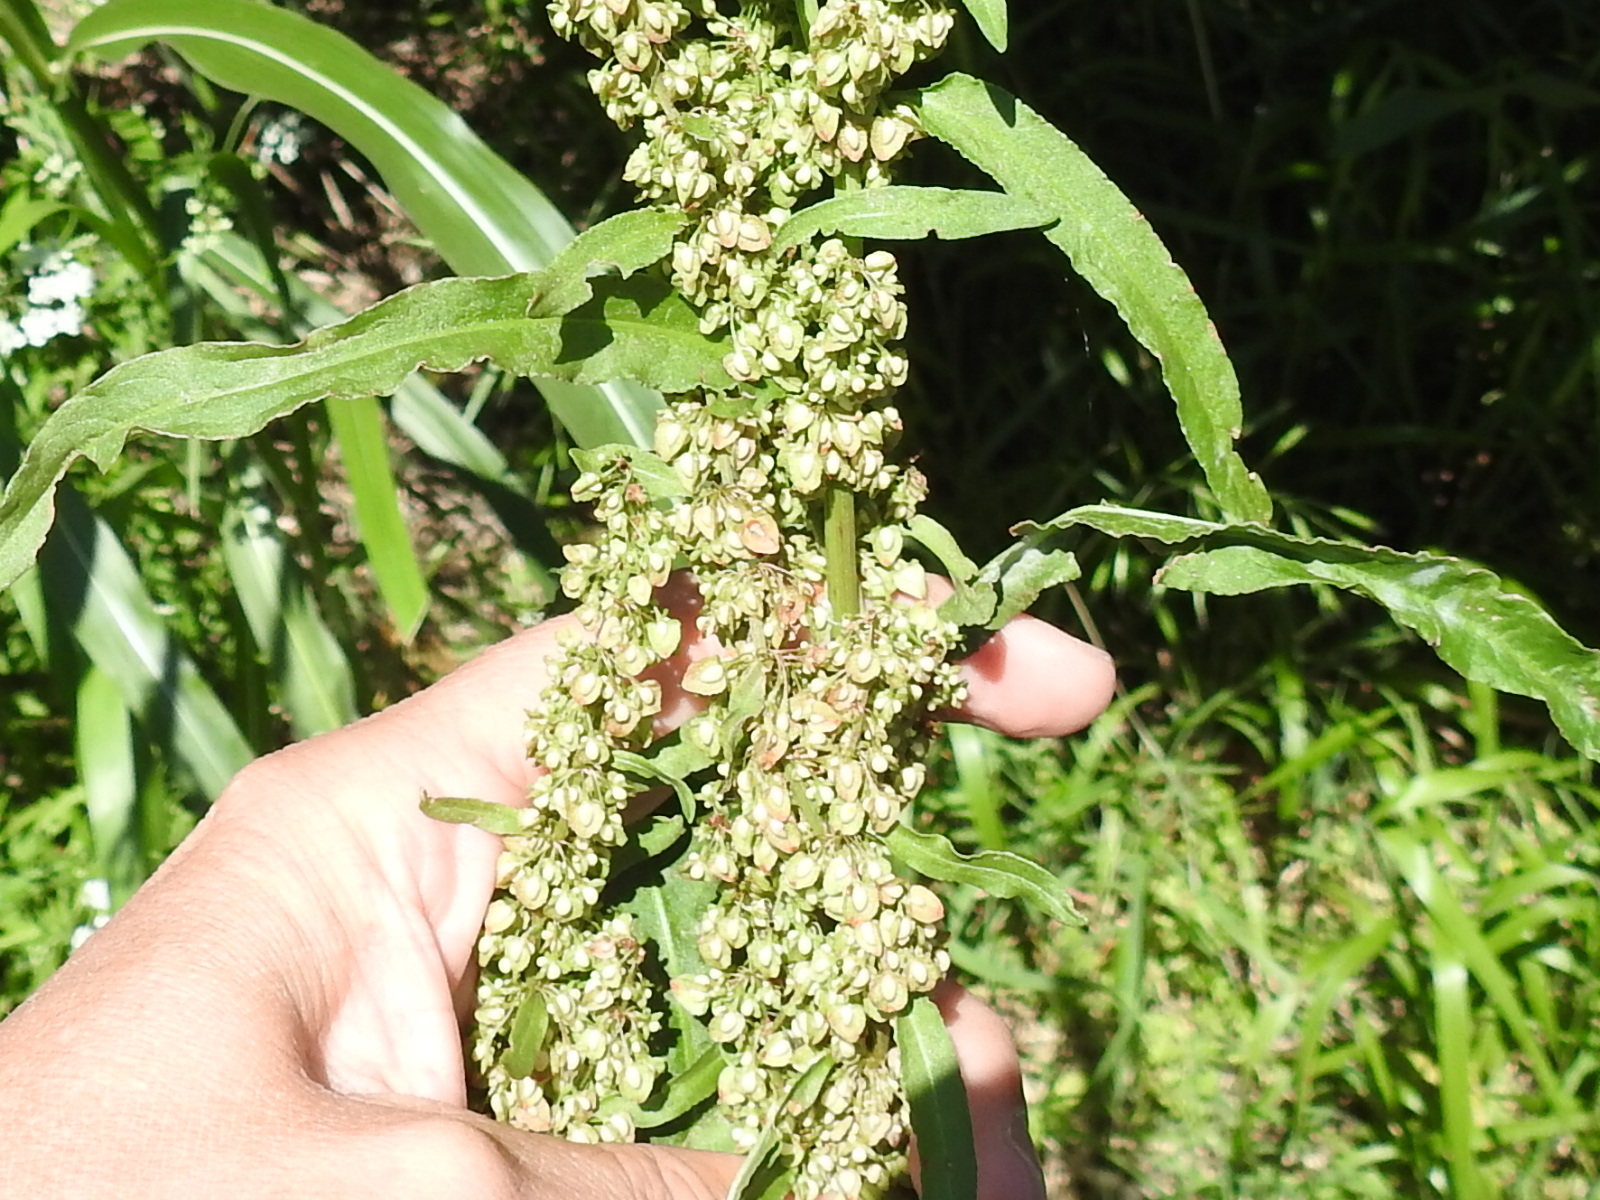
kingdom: Plantae
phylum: Tracheophyta
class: Magnoliopsida
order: Caryophyllales
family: Polygonaceae
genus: Rumex
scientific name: Rumex crispus
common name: Curled dock
